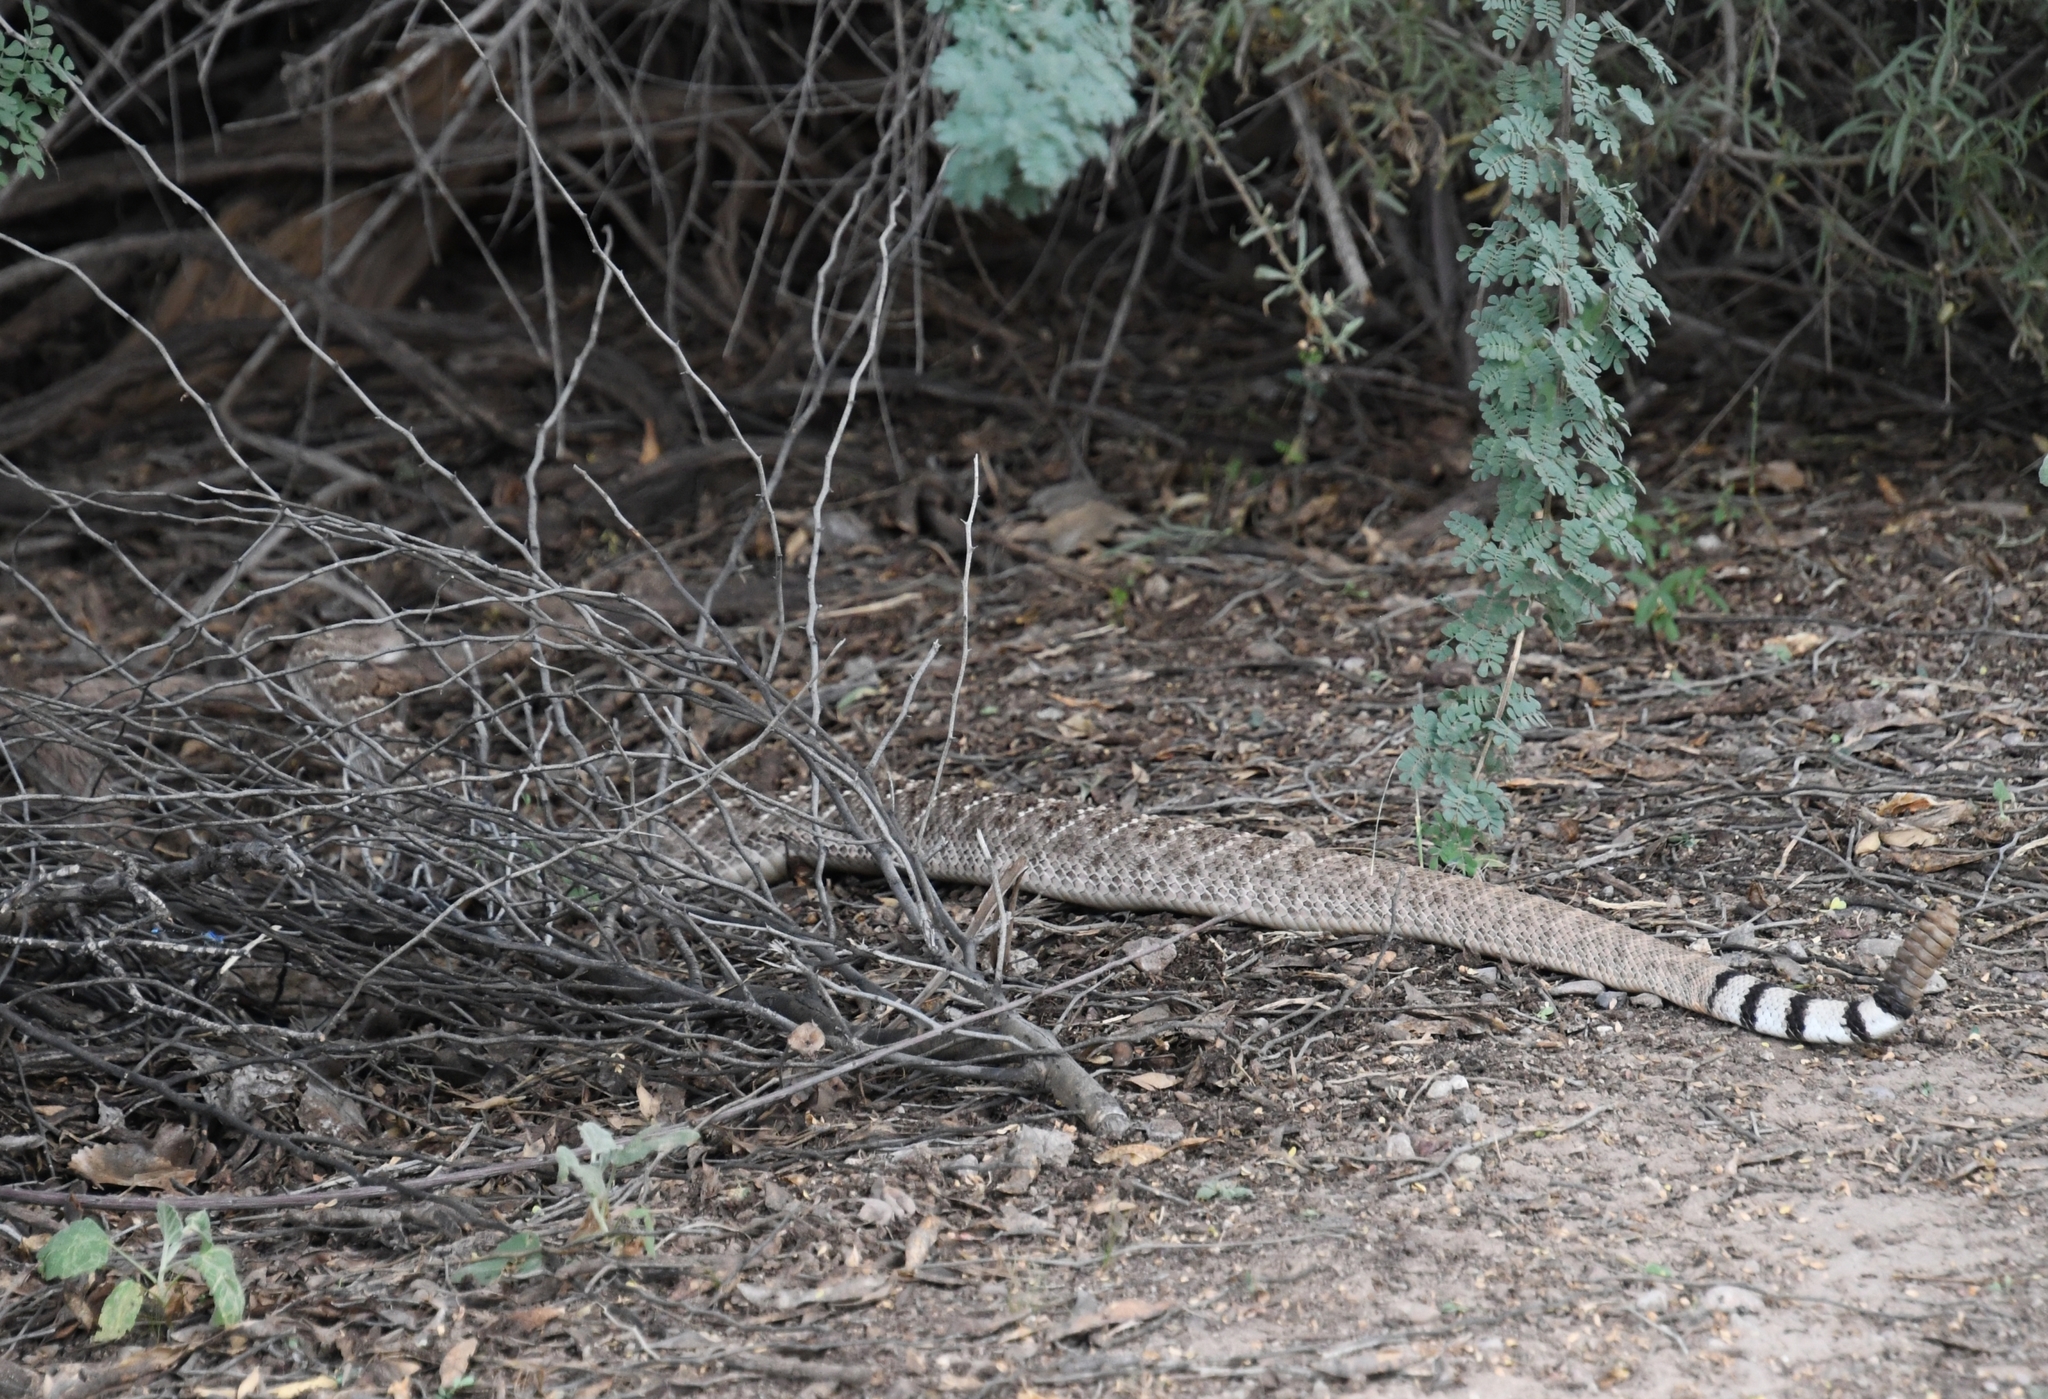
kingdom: Animalia
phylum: Chordata
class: Squamata
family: Viperidae
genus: Crotalus
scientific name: Crotalus atrox
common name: Western diamond-backed rattlesnake
